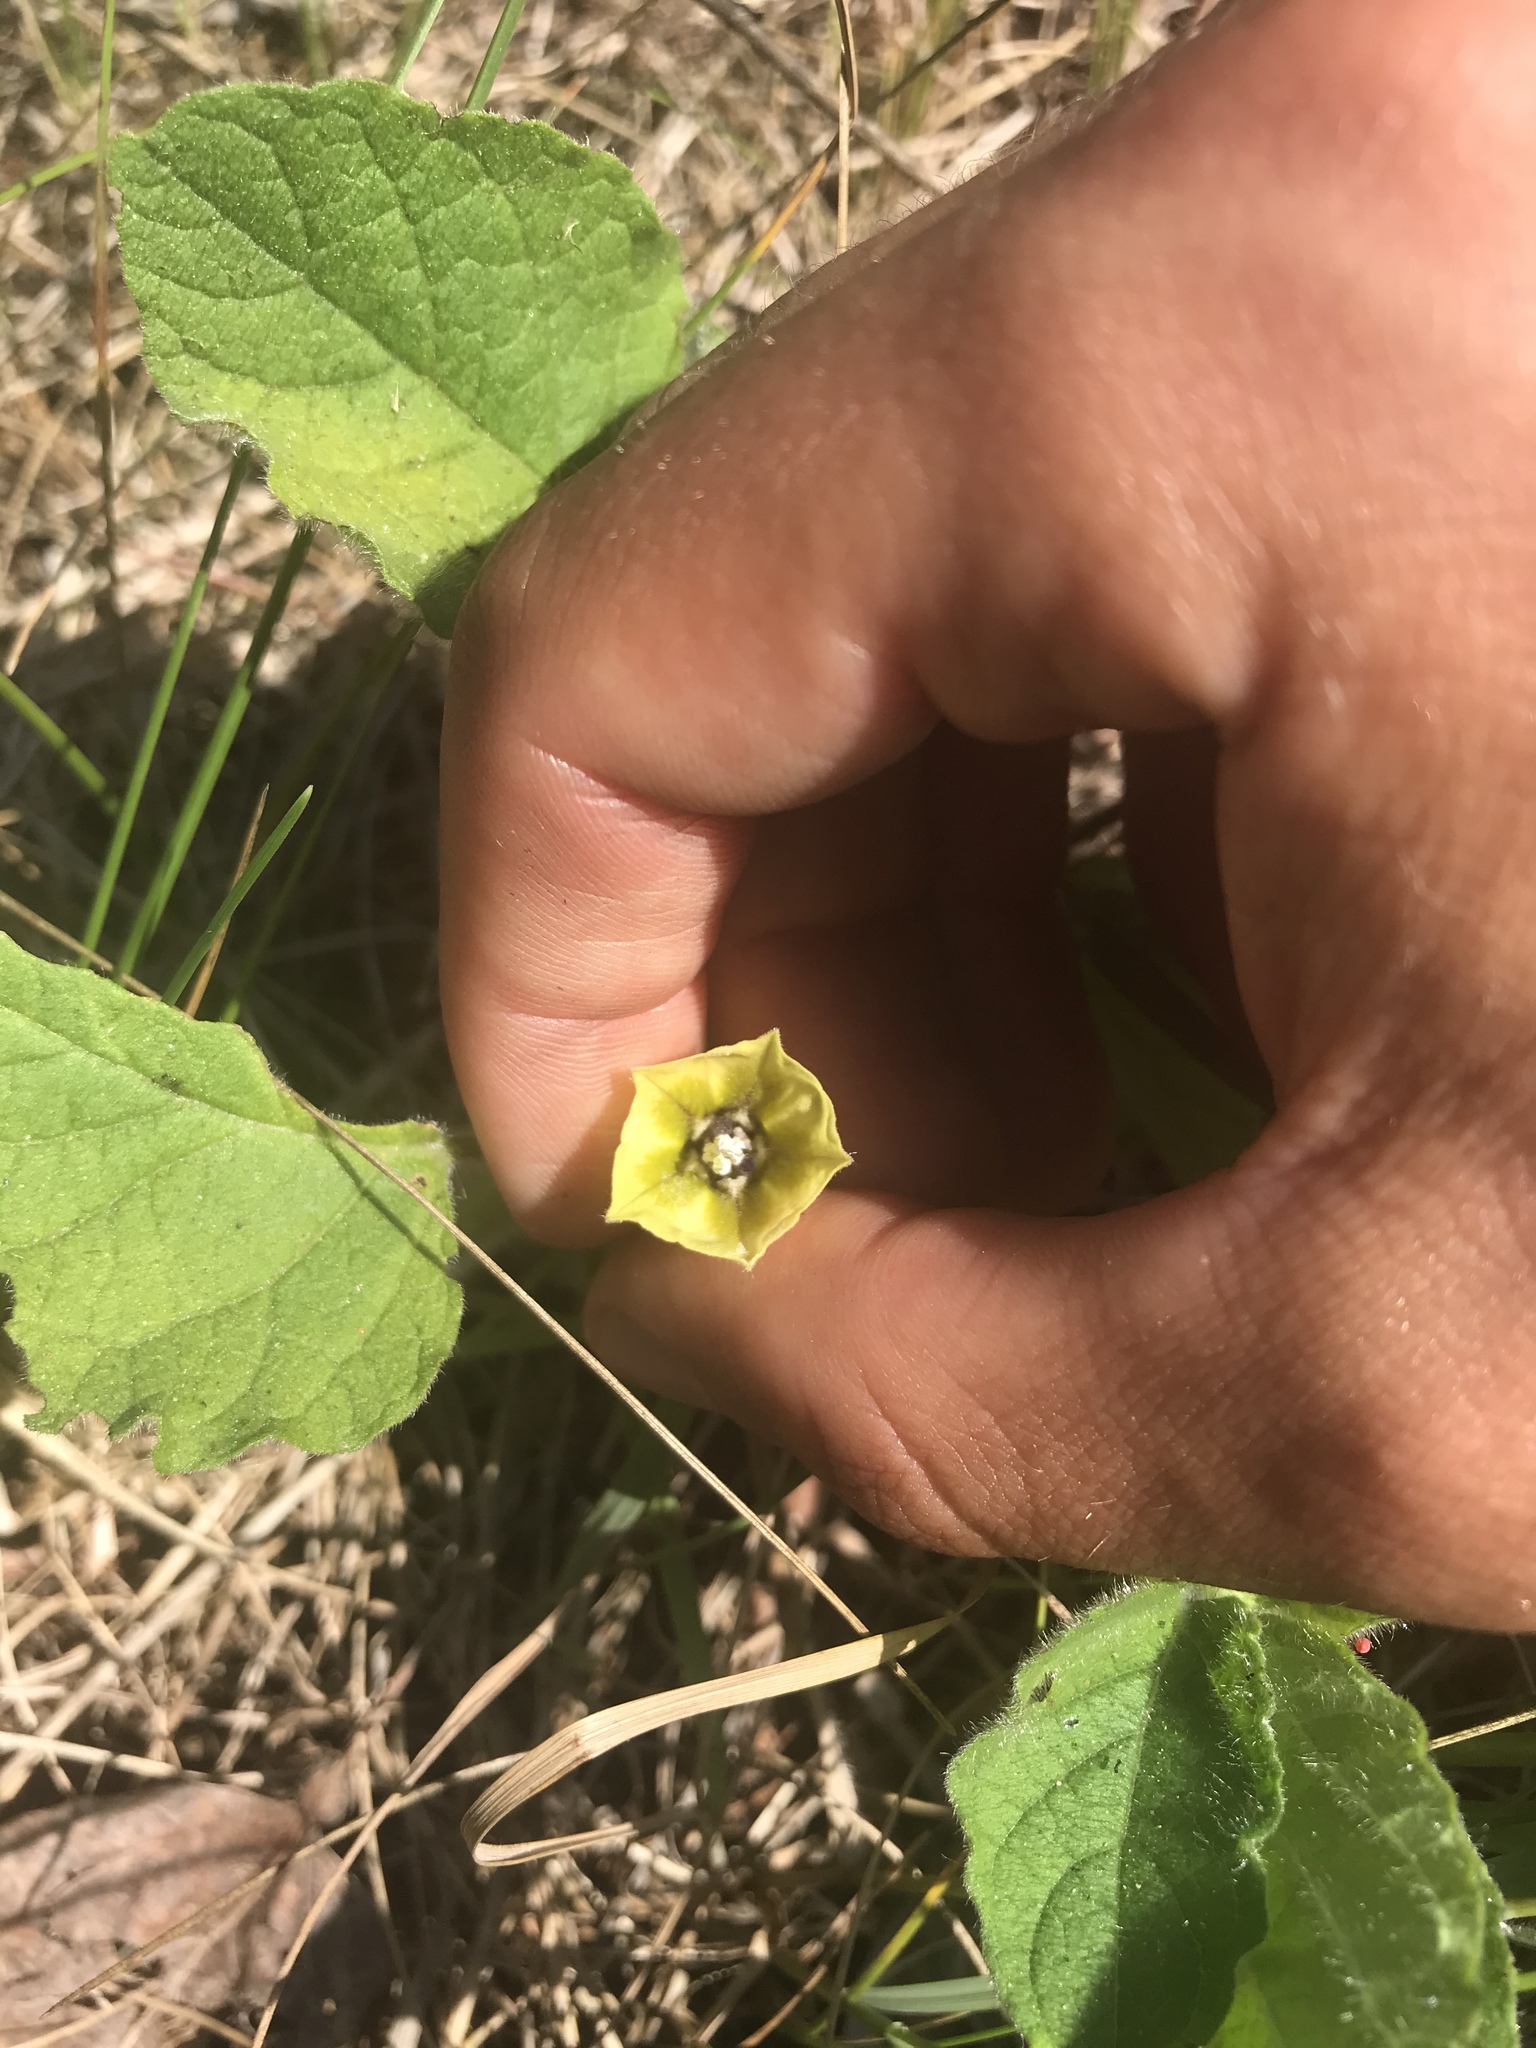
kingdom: Plantae
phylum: Tracheophyta
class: Magnoliopsida
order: Solanales
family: Solanaceae
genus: Physalis
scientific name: Physalis heterophylla
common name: Clammy ground-cherry
